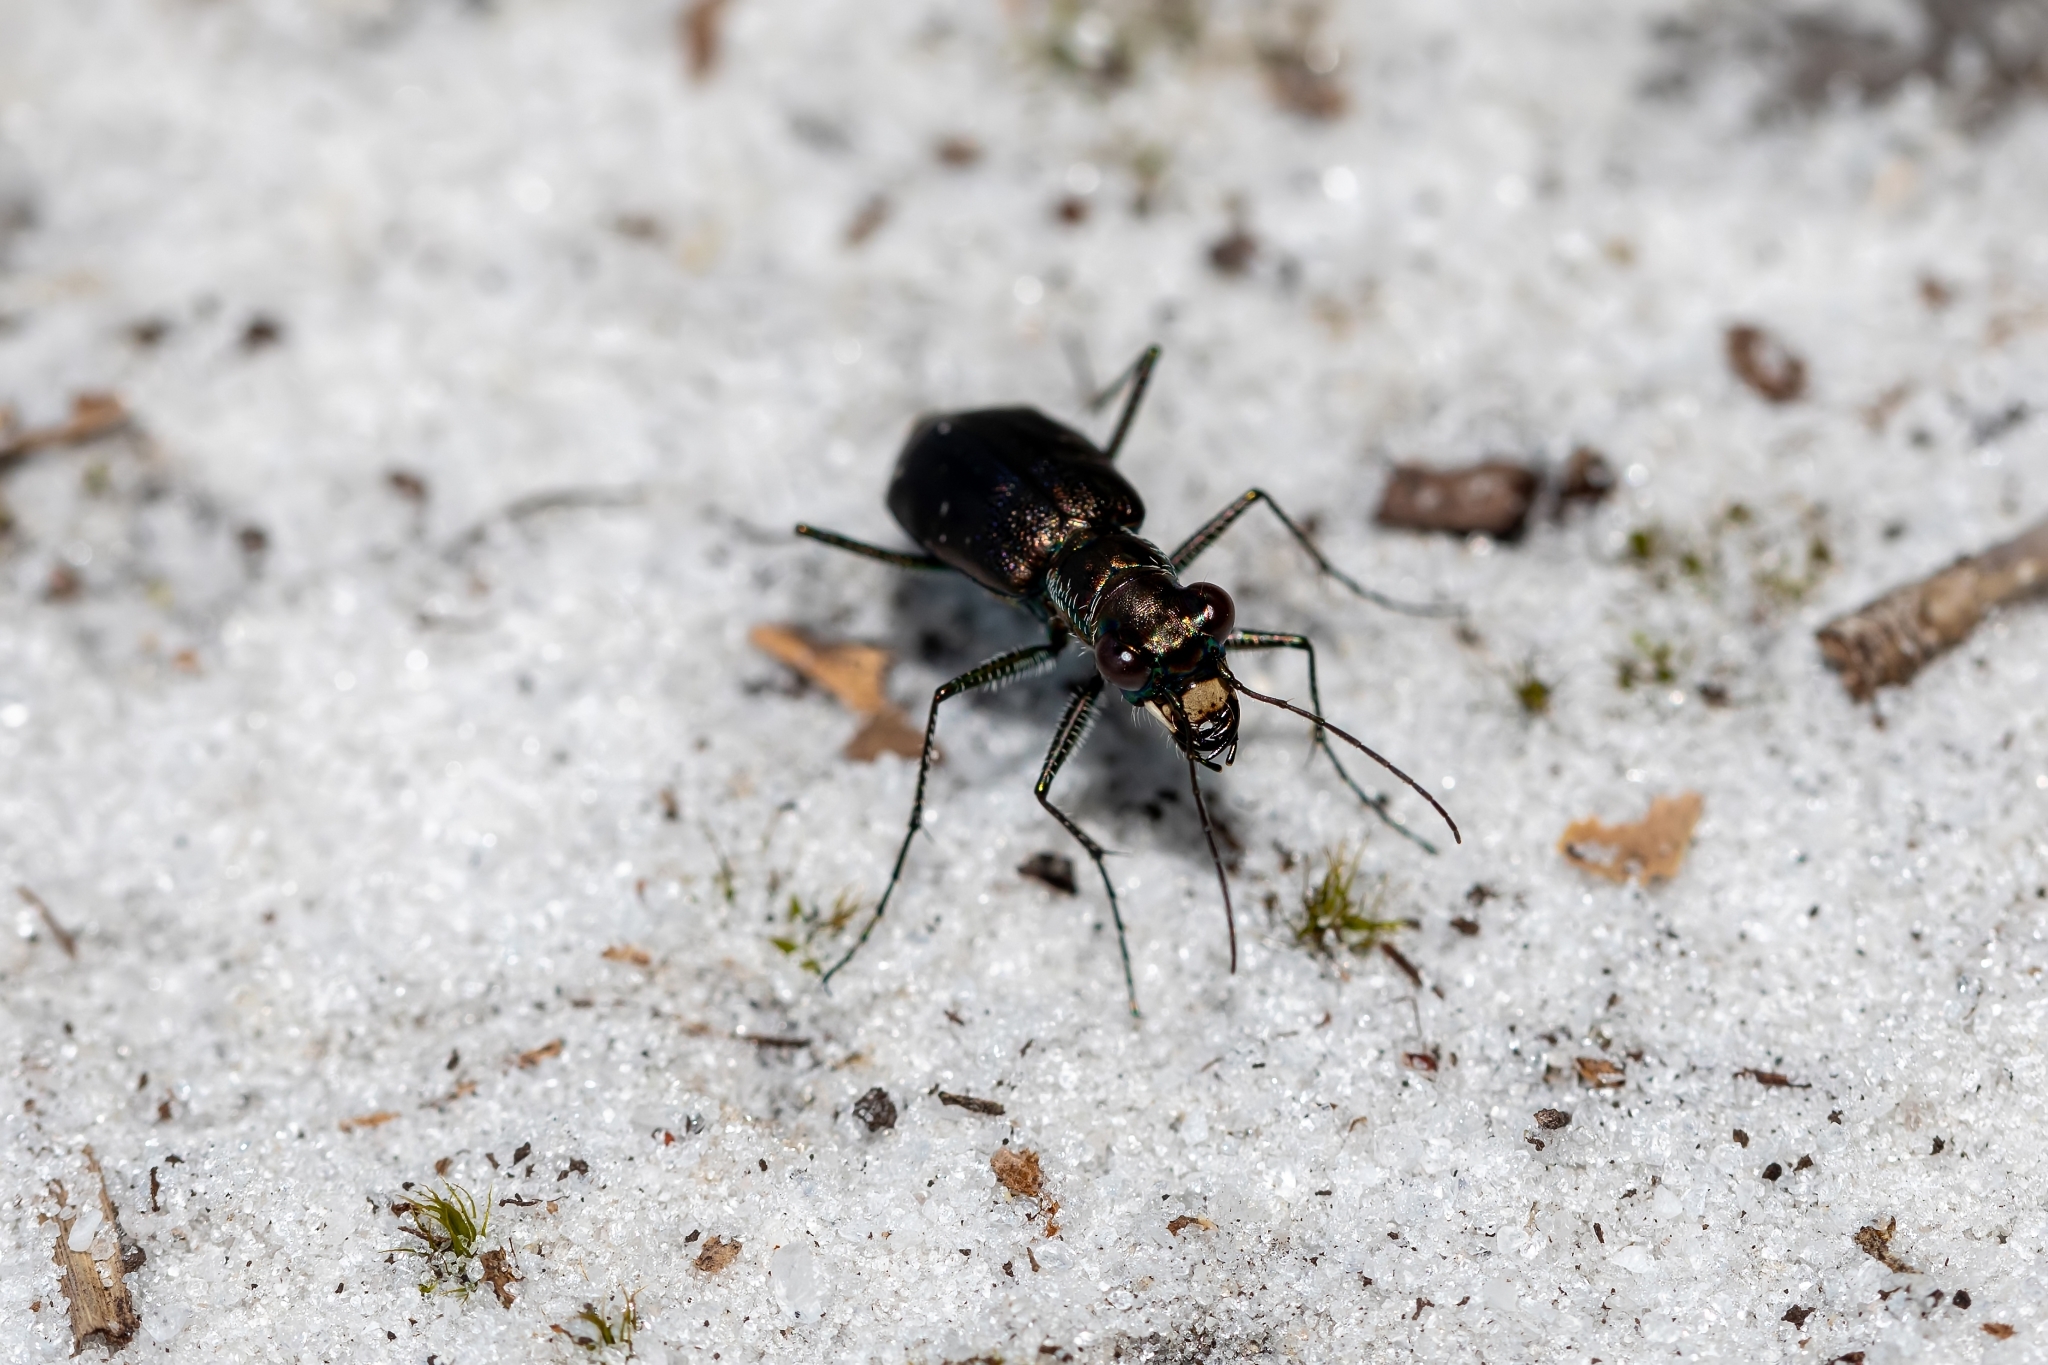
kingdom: Animalia
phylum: Arthropoda
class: Insecta
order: Coleoptera
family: Carabidae
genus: Cicindela
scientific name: Cicindela punctulata
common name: Punctured tiger beetle
